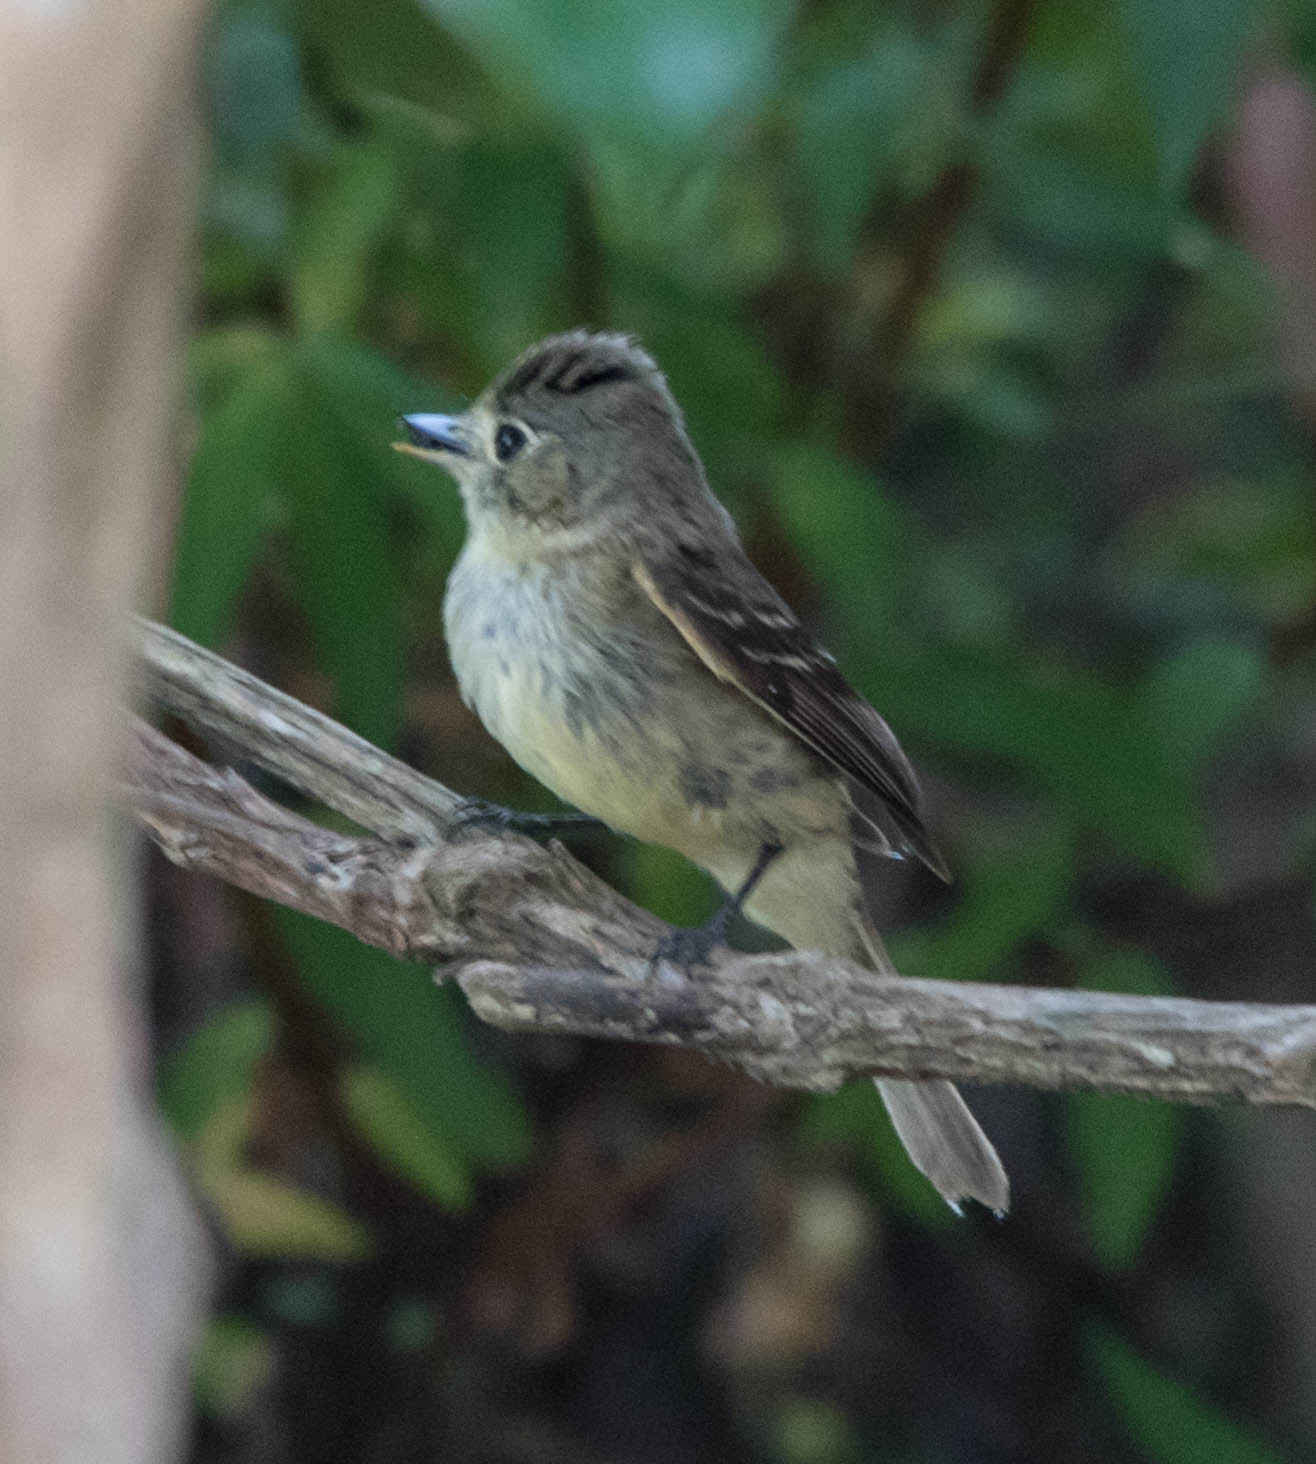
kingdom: Animalia
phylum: Chordata
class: Aves
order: Passeriformes
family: Tyrannidae
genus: Empidonax
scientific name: Empidonax difficilis
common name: Pacific-slope flycatcher
